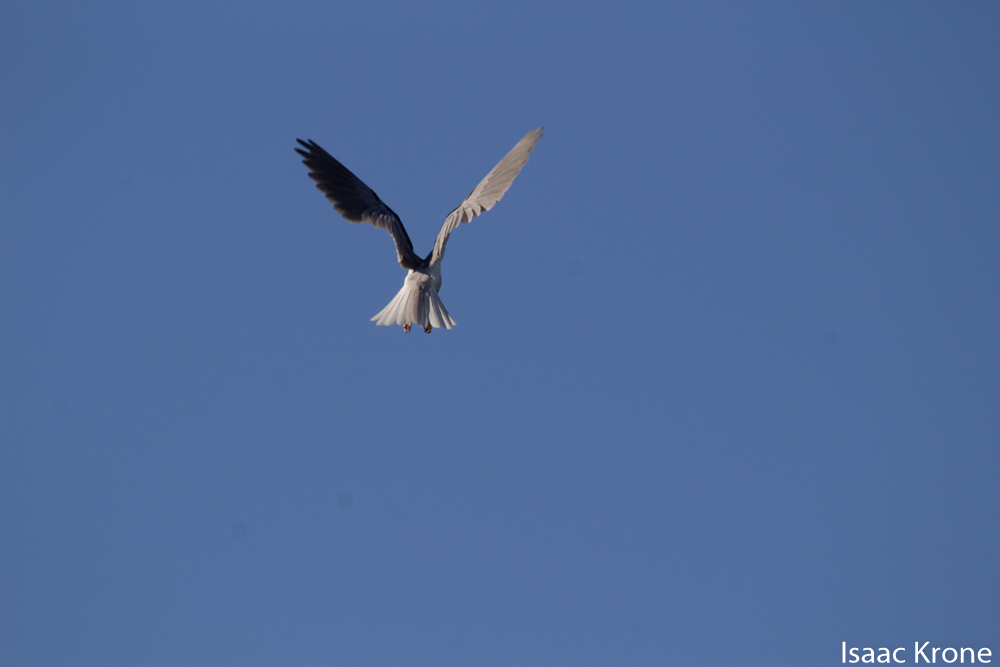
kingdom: Animalia
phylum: Chordata
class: Aves
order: Accipitriformes
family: Accipitridae
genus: Elanus
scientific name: Elanus leucurus
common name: White-tailed kite
